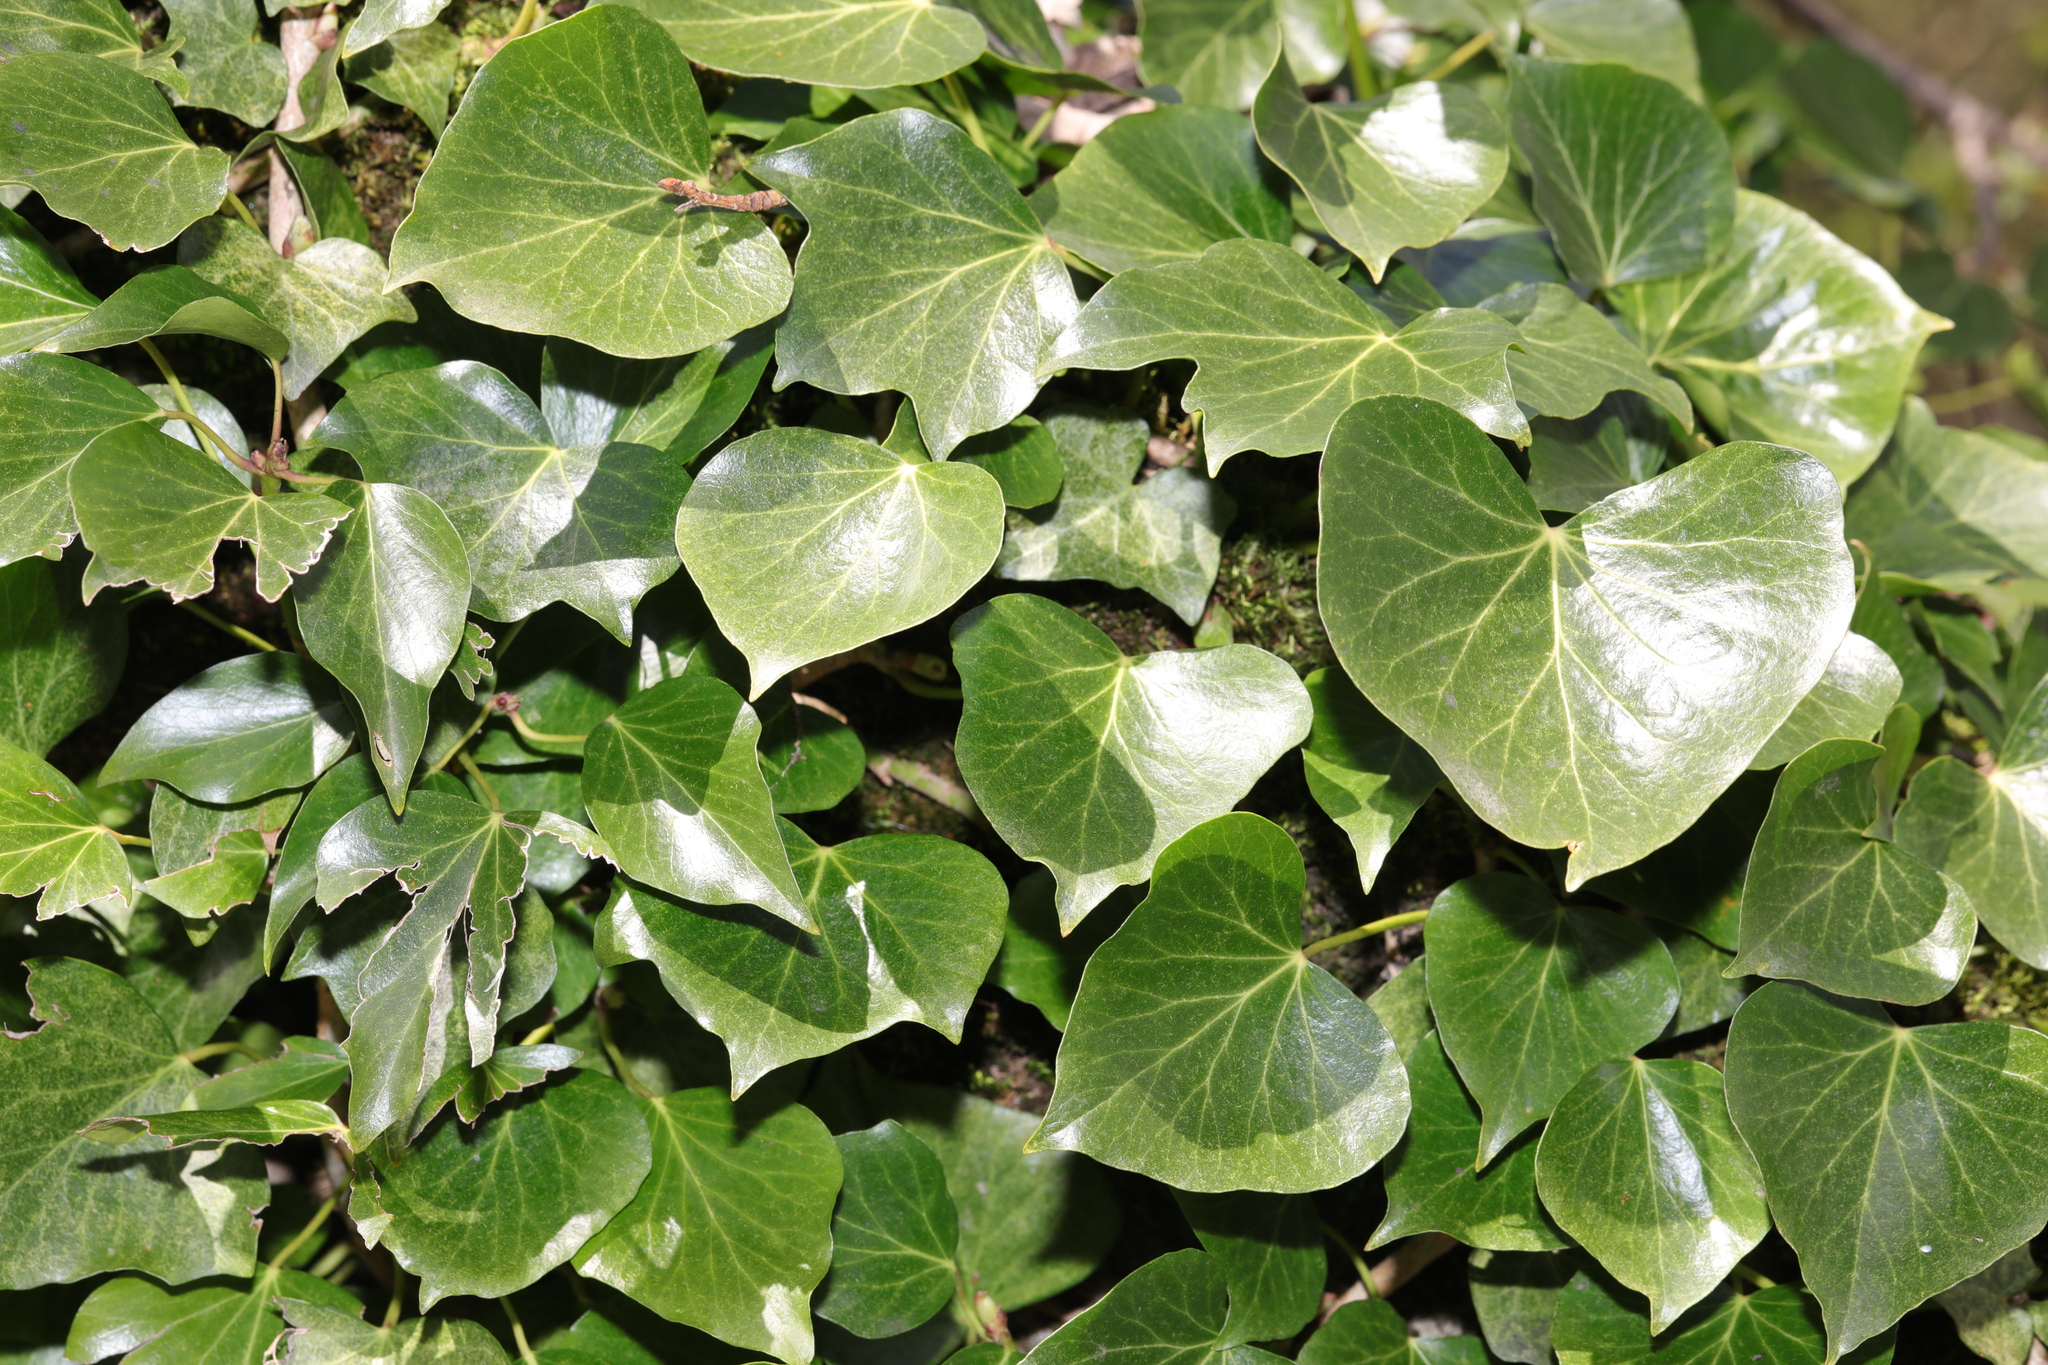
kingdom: Plantae
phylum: Tracheophyta
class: Magnoliopsida
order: Apiales
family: Araliaceae
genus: Hedera
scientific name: Hedera helix
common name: Ivy
